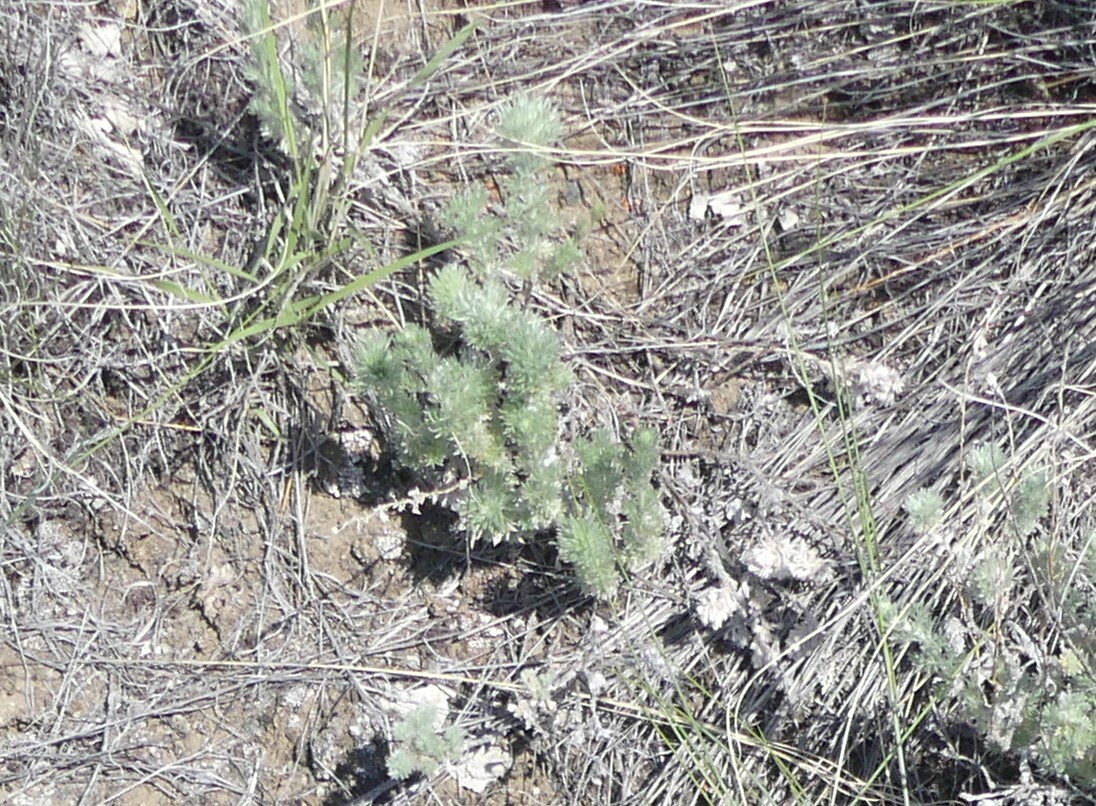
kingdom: Plantae
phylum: Tracheophyta
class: Magnoliopsida
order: Asterales
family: Asteraceae
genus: Artemisia
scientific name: Artemisia frigida
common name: Prairie sagewort
